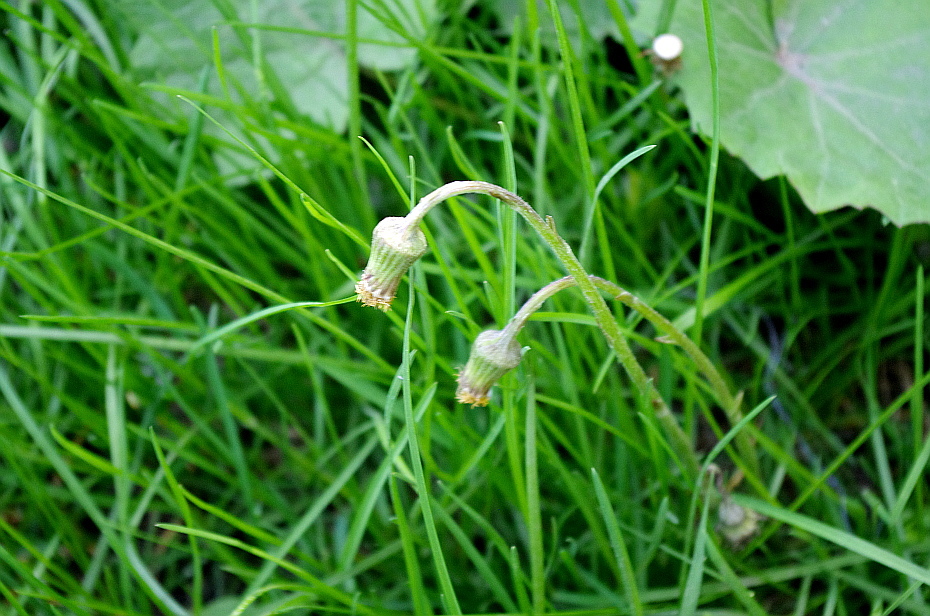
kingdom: Plantae
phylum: Tracheophyta
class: Magnoliopsida
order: Asterales
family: Asteraceae
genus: Tussilago
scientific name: Tussilago farfara
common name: Coltsfoot
